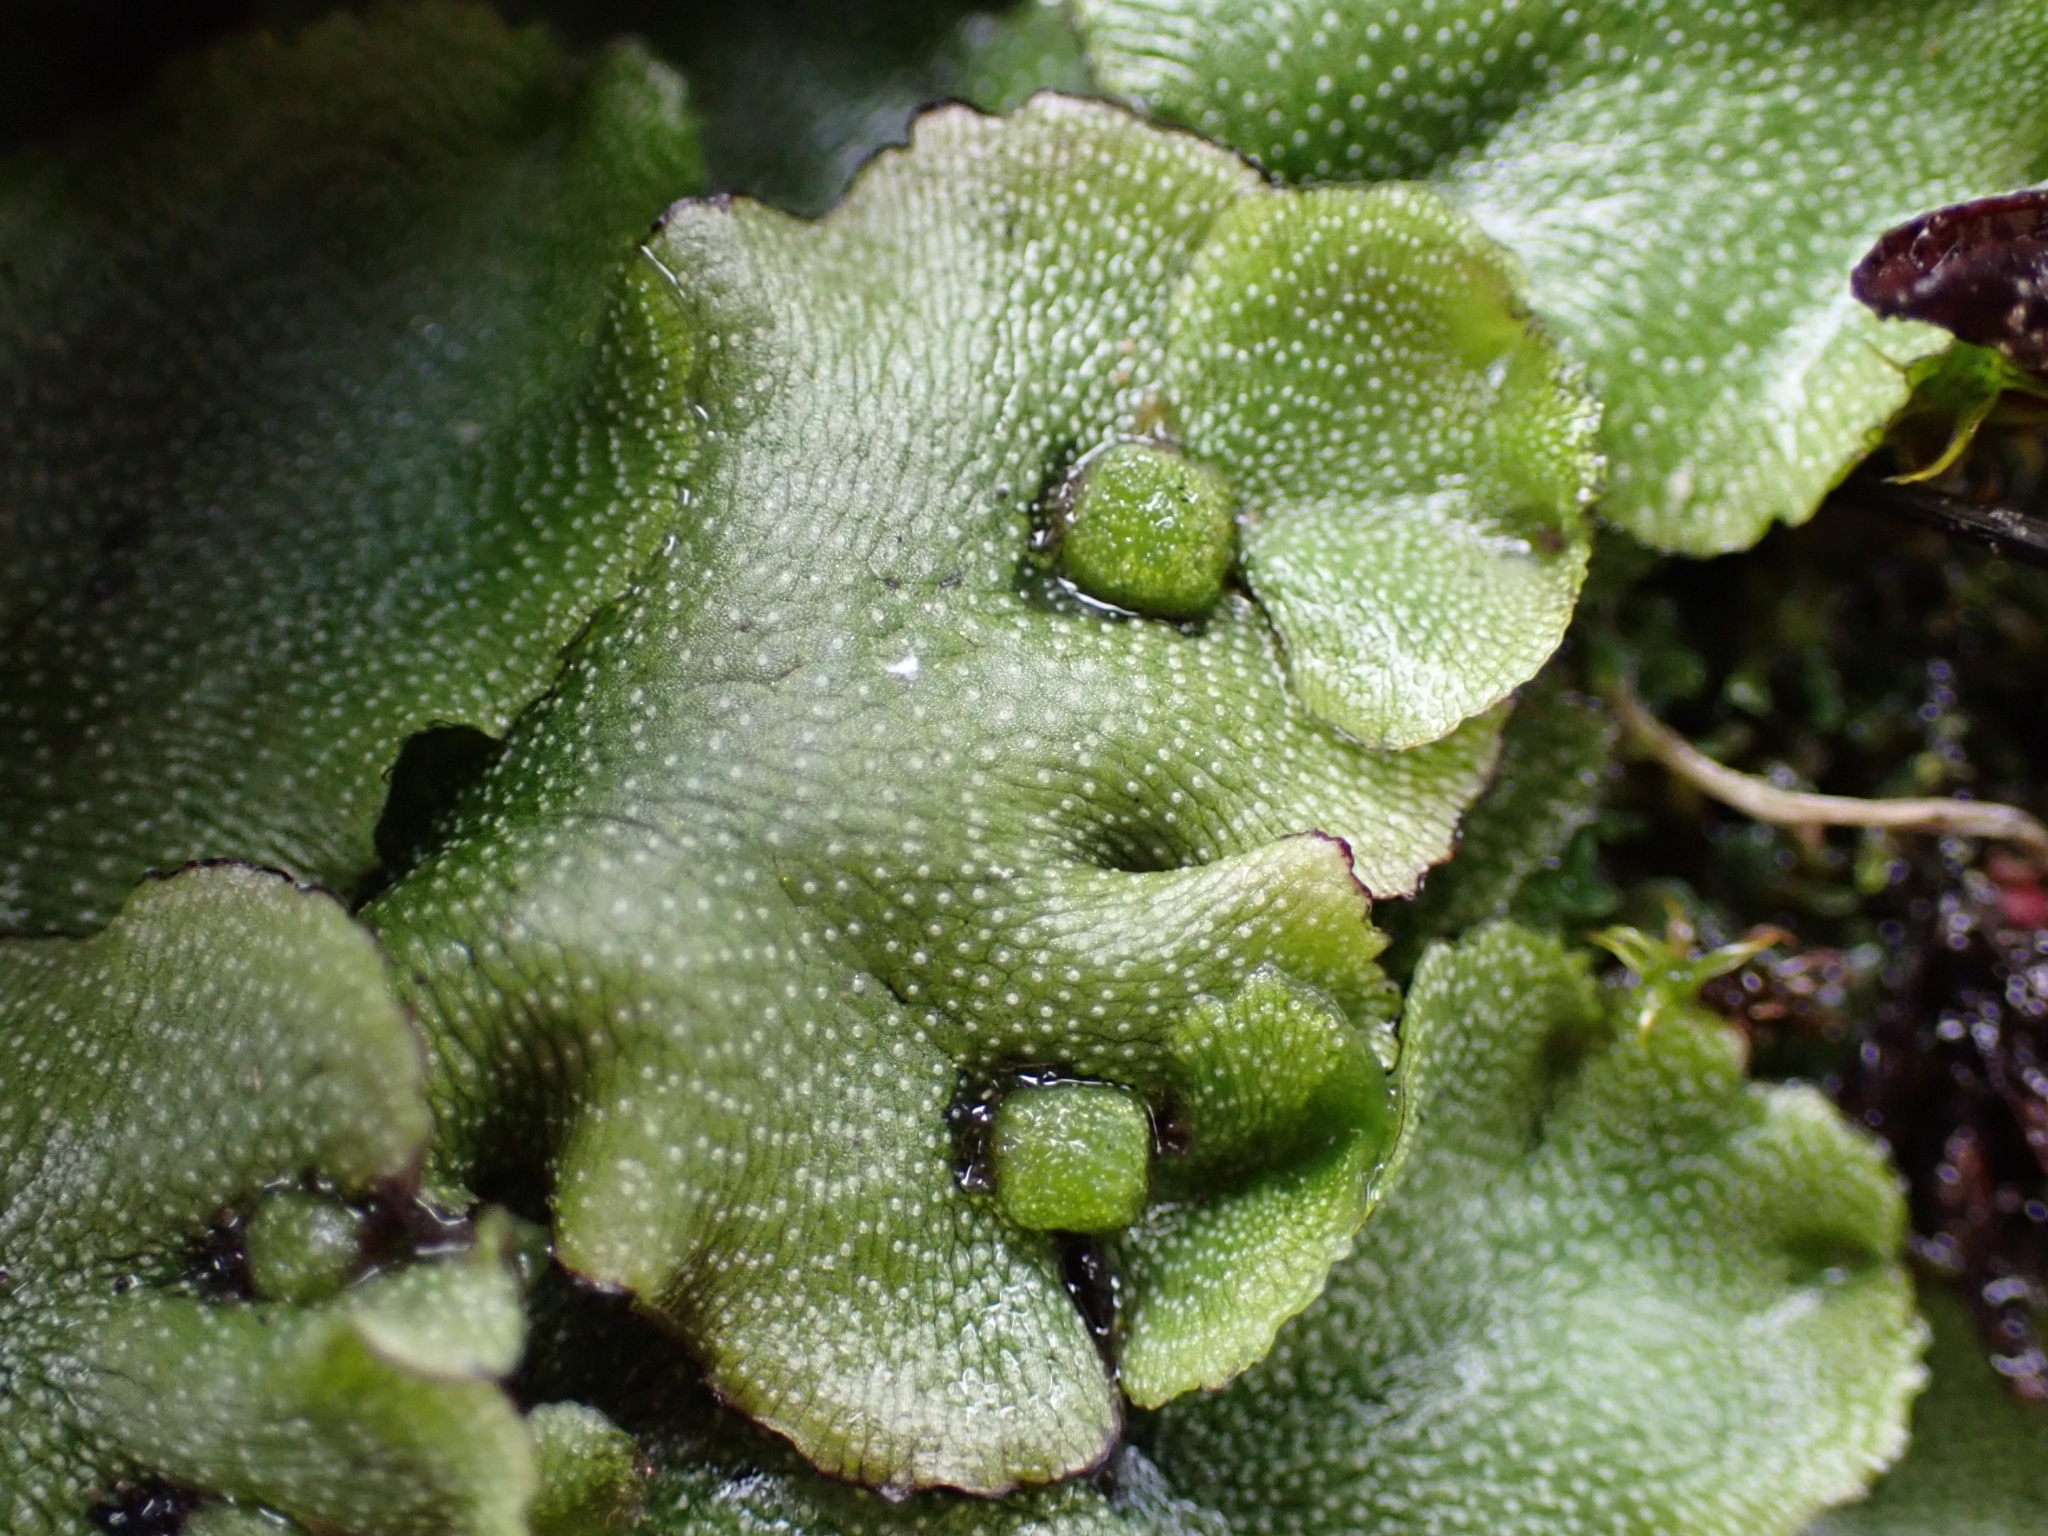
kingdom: Plantae
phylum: Marchantiophyta
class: Marchantiopsida
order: Marchantiales
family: Marchantiaceae
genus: Marchantia
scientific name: Marchantia quadrata
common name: Narrow mushroom-headed liverwort
